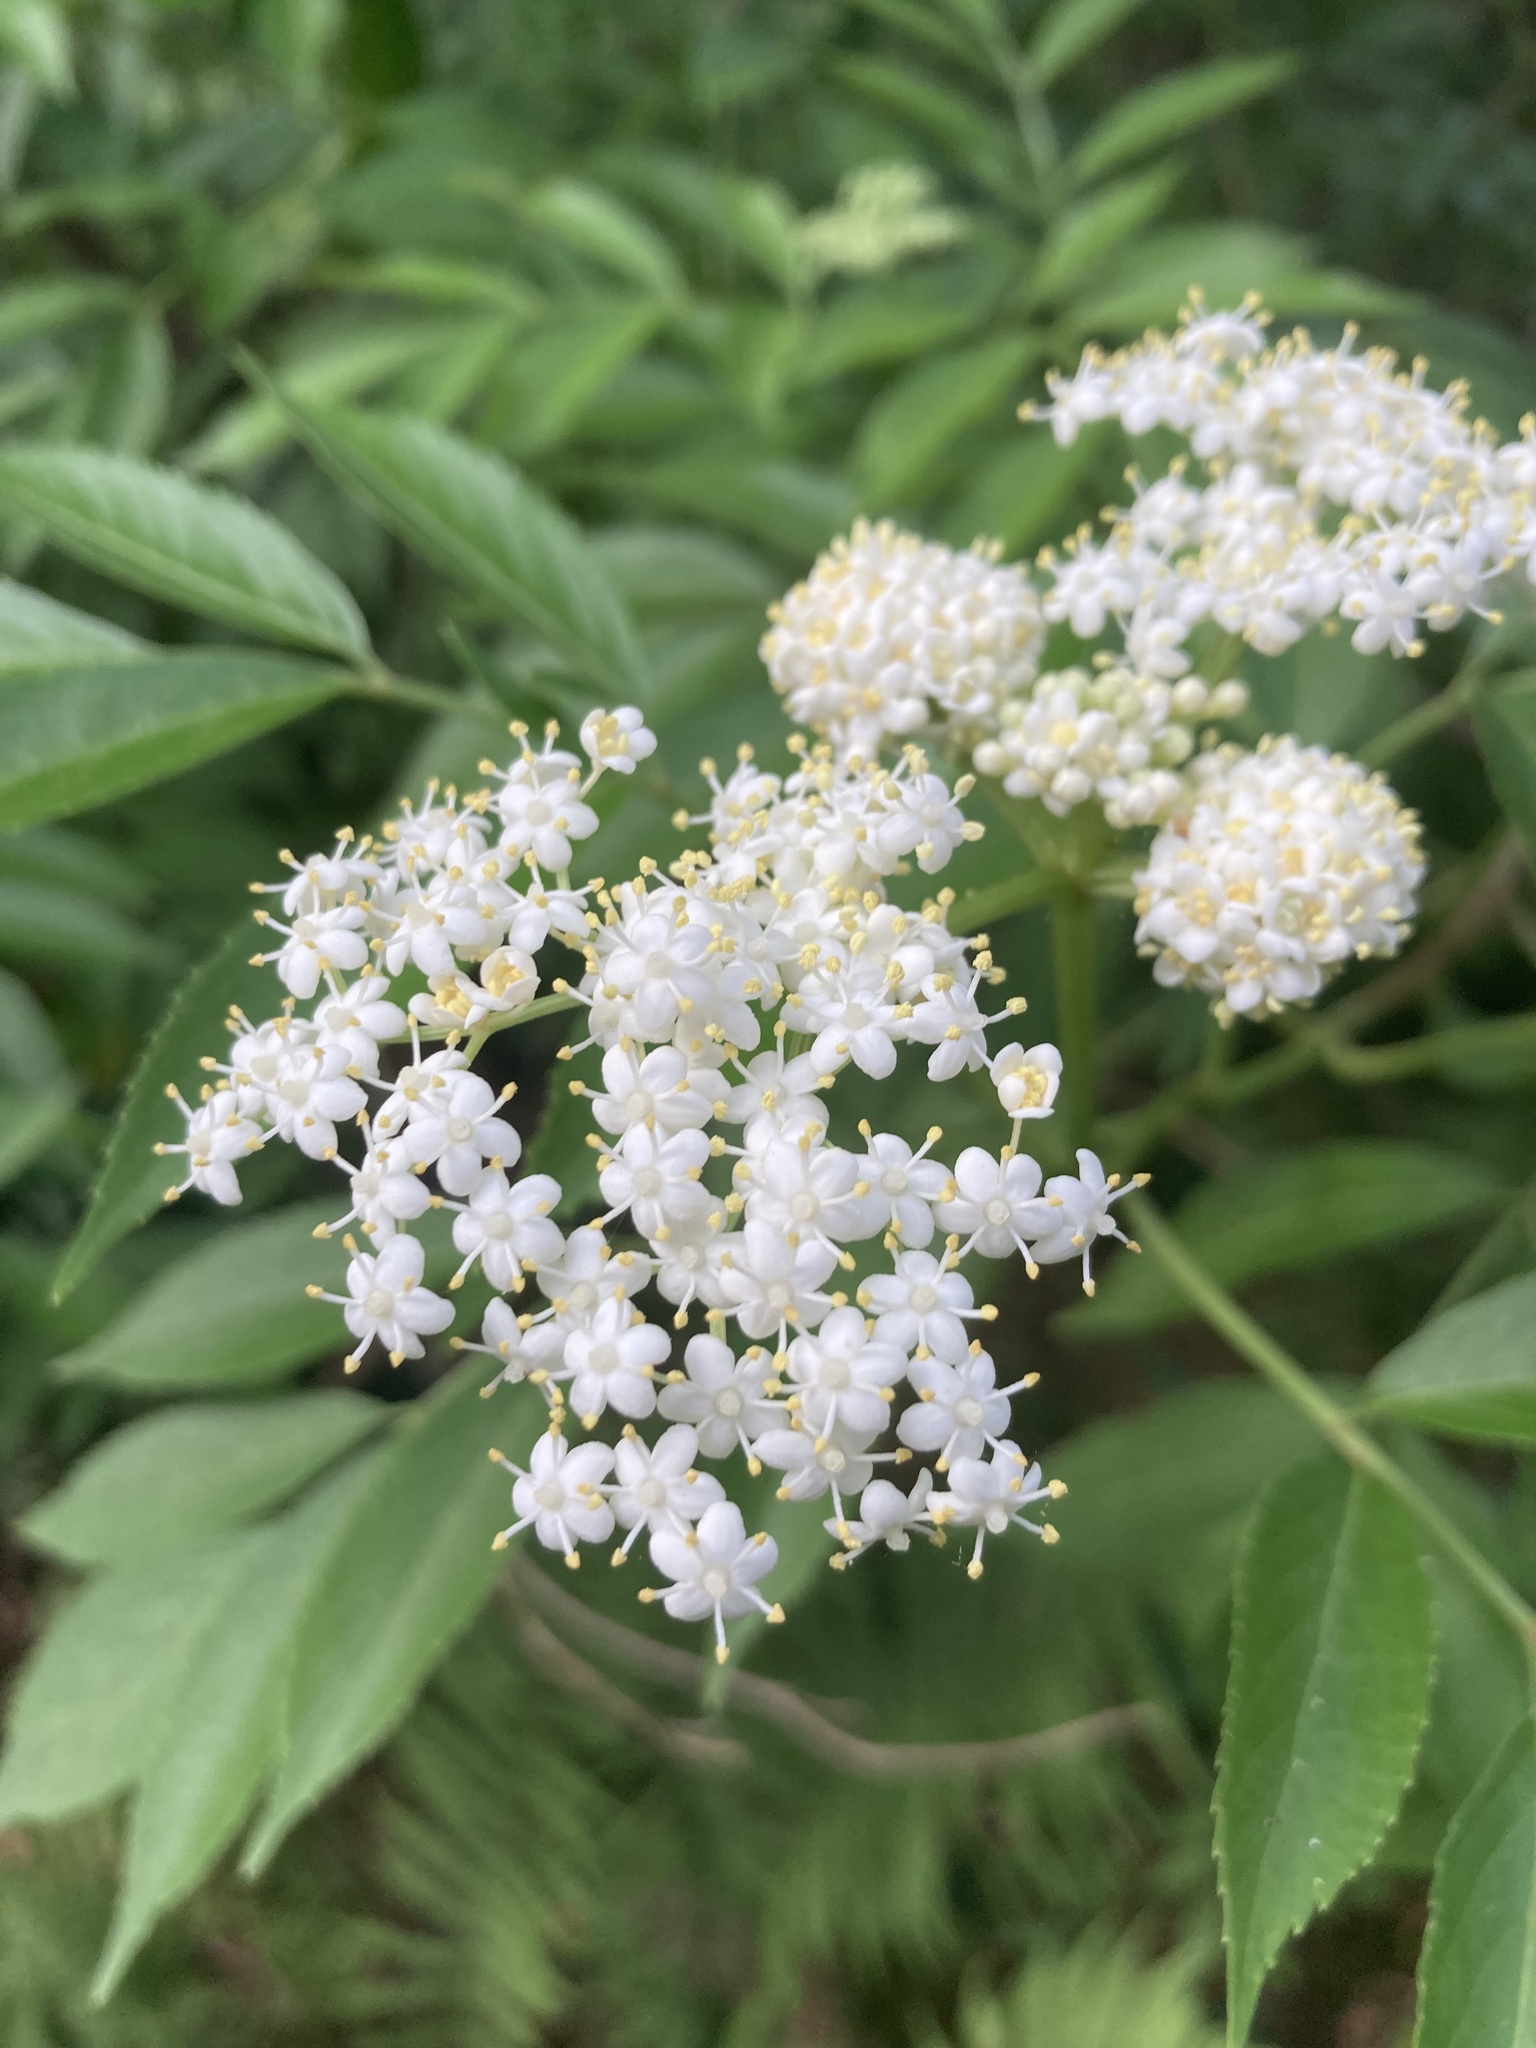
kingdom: Plantae
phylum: Tracheophyta
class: Magnoliopsida
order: Dipsacales
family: Viburnaceae
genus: Sambucus
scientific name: Sambucus canadensis
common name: American elder
